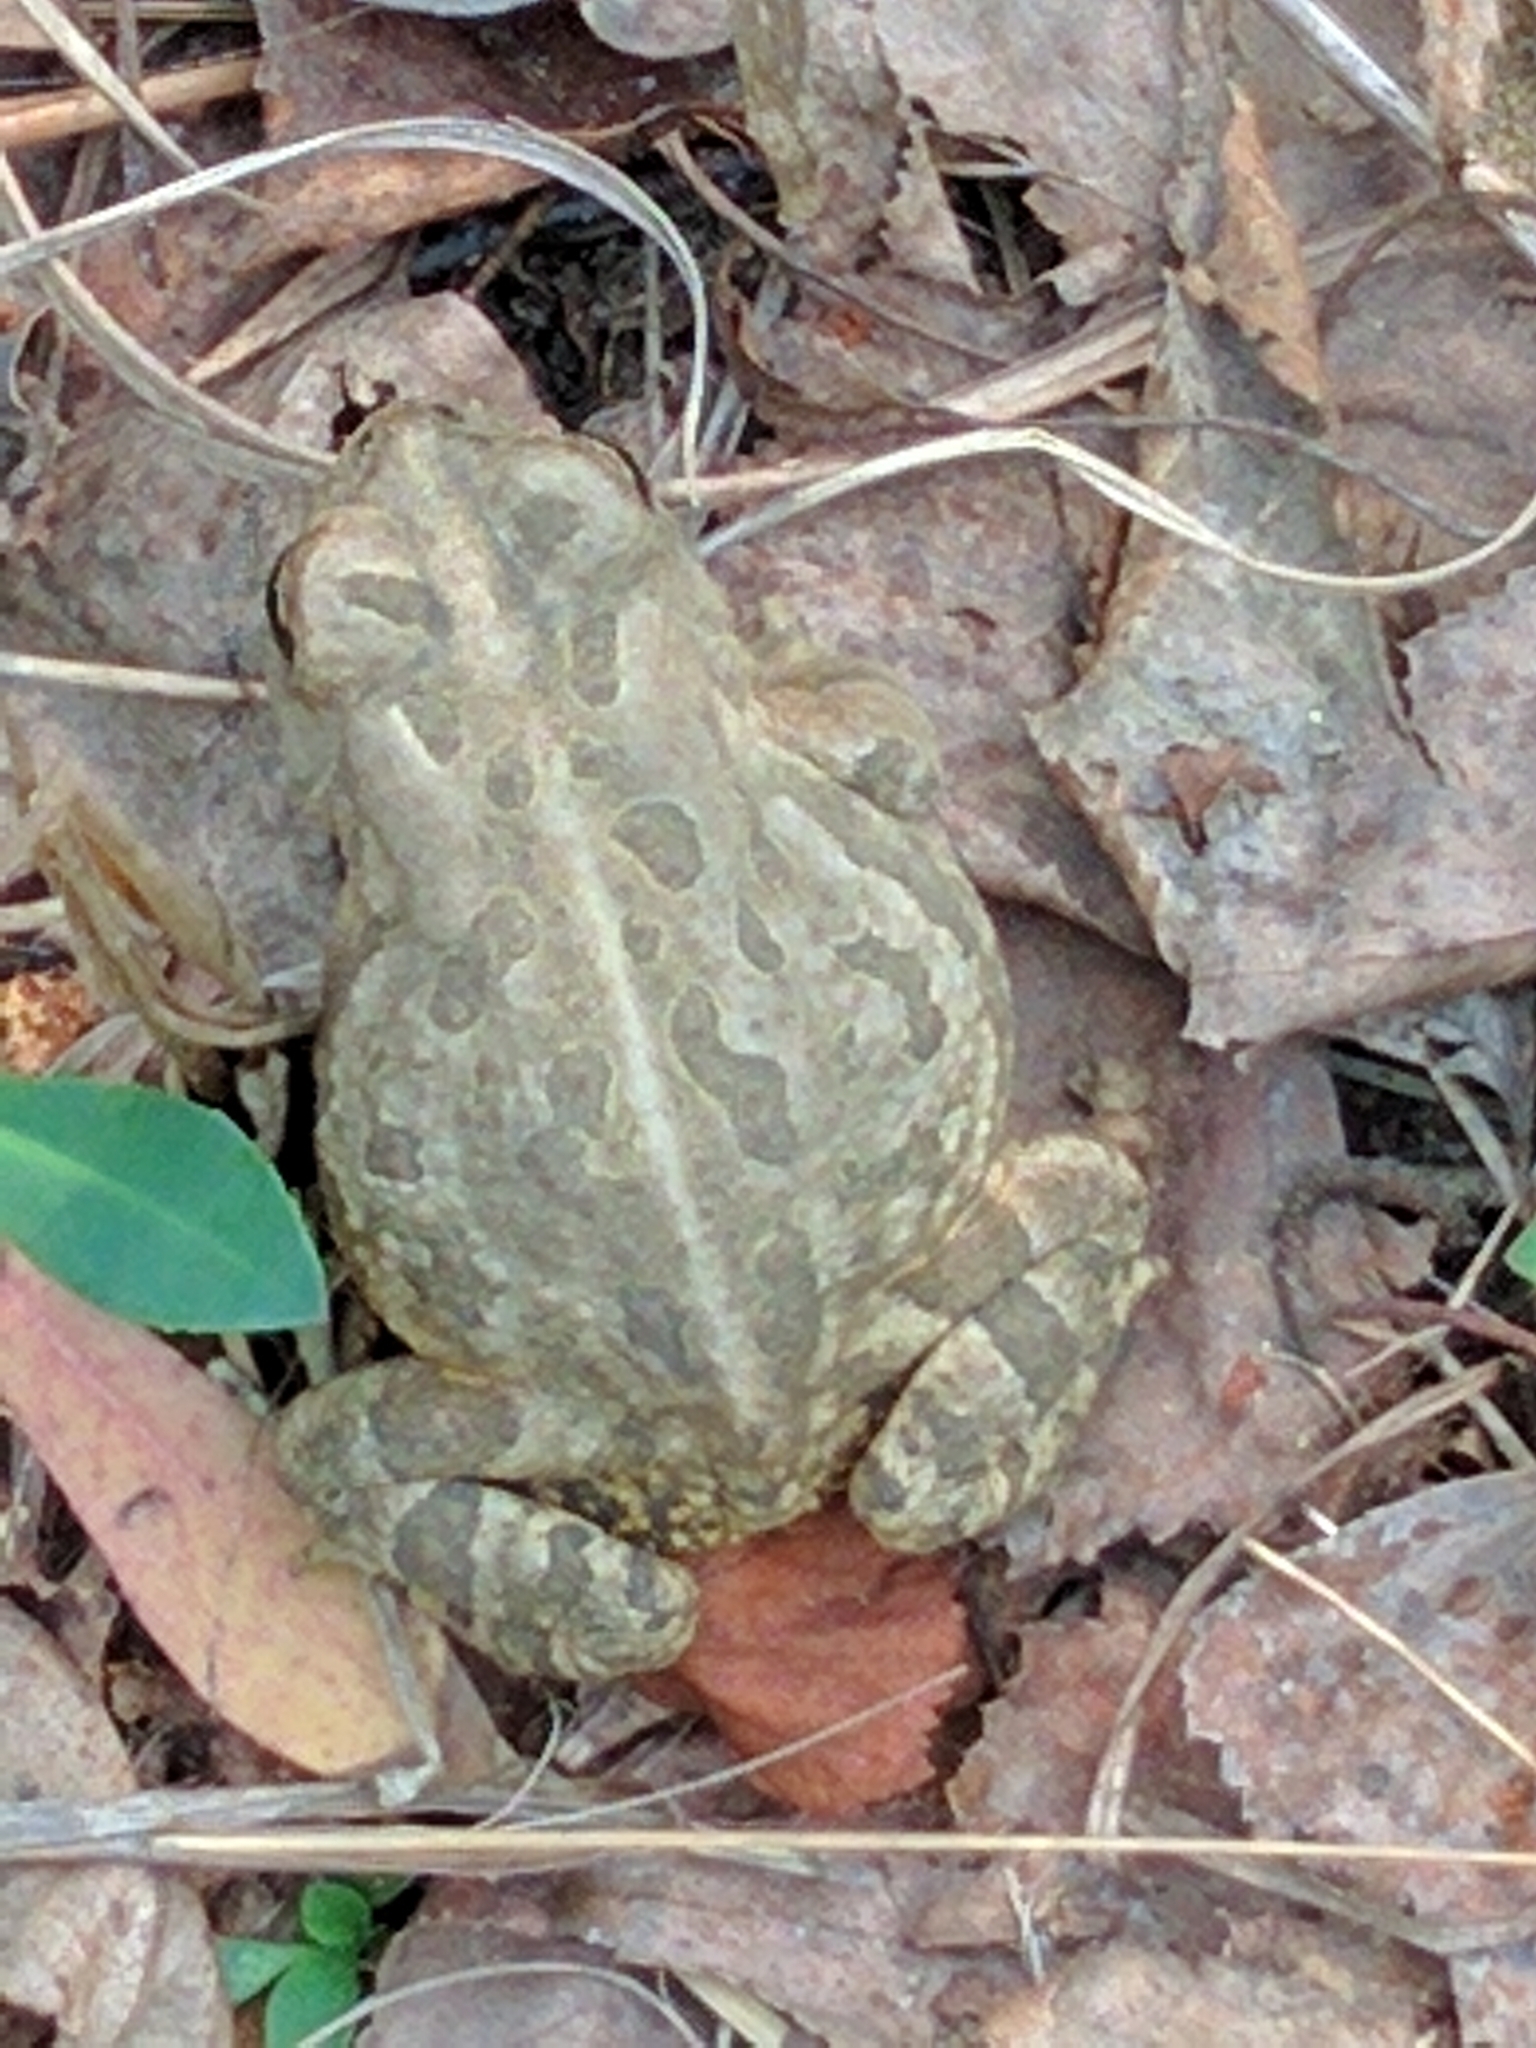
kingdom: Animalia
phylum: Chordata
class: Amphibia
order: Anura
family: Bufonidae
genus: Anaxyrus
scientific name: Anaxyrus fowleri
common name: Fowler's toad
